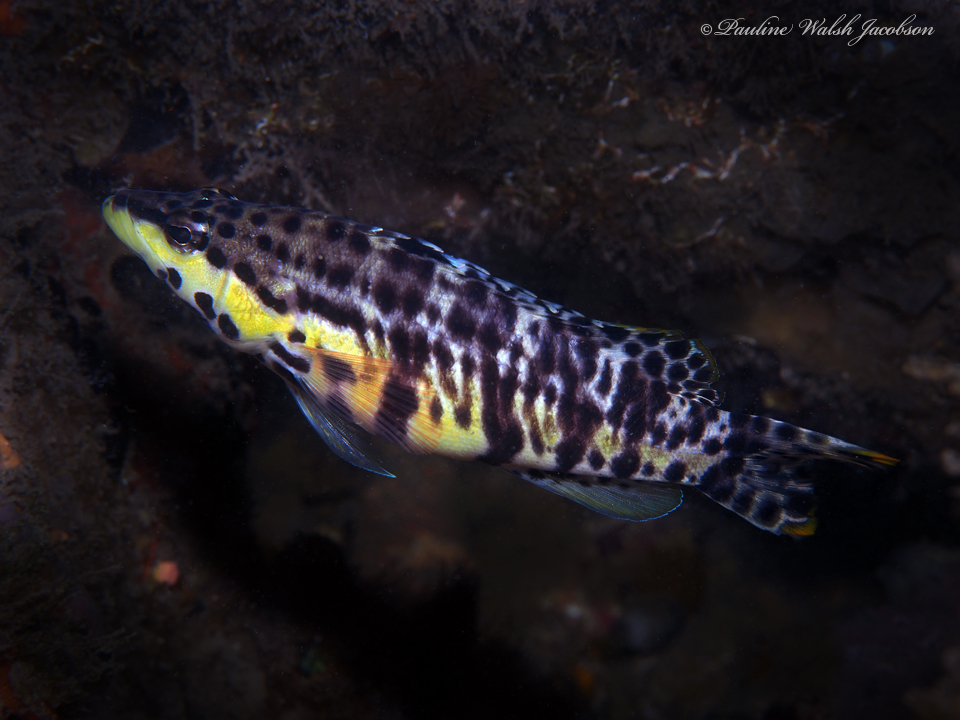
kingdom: Animalia
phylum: Chordata
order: Perciformes
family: Serranidae
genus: Serranus
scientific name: Serranus tigrinus
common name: Harlequin bass
